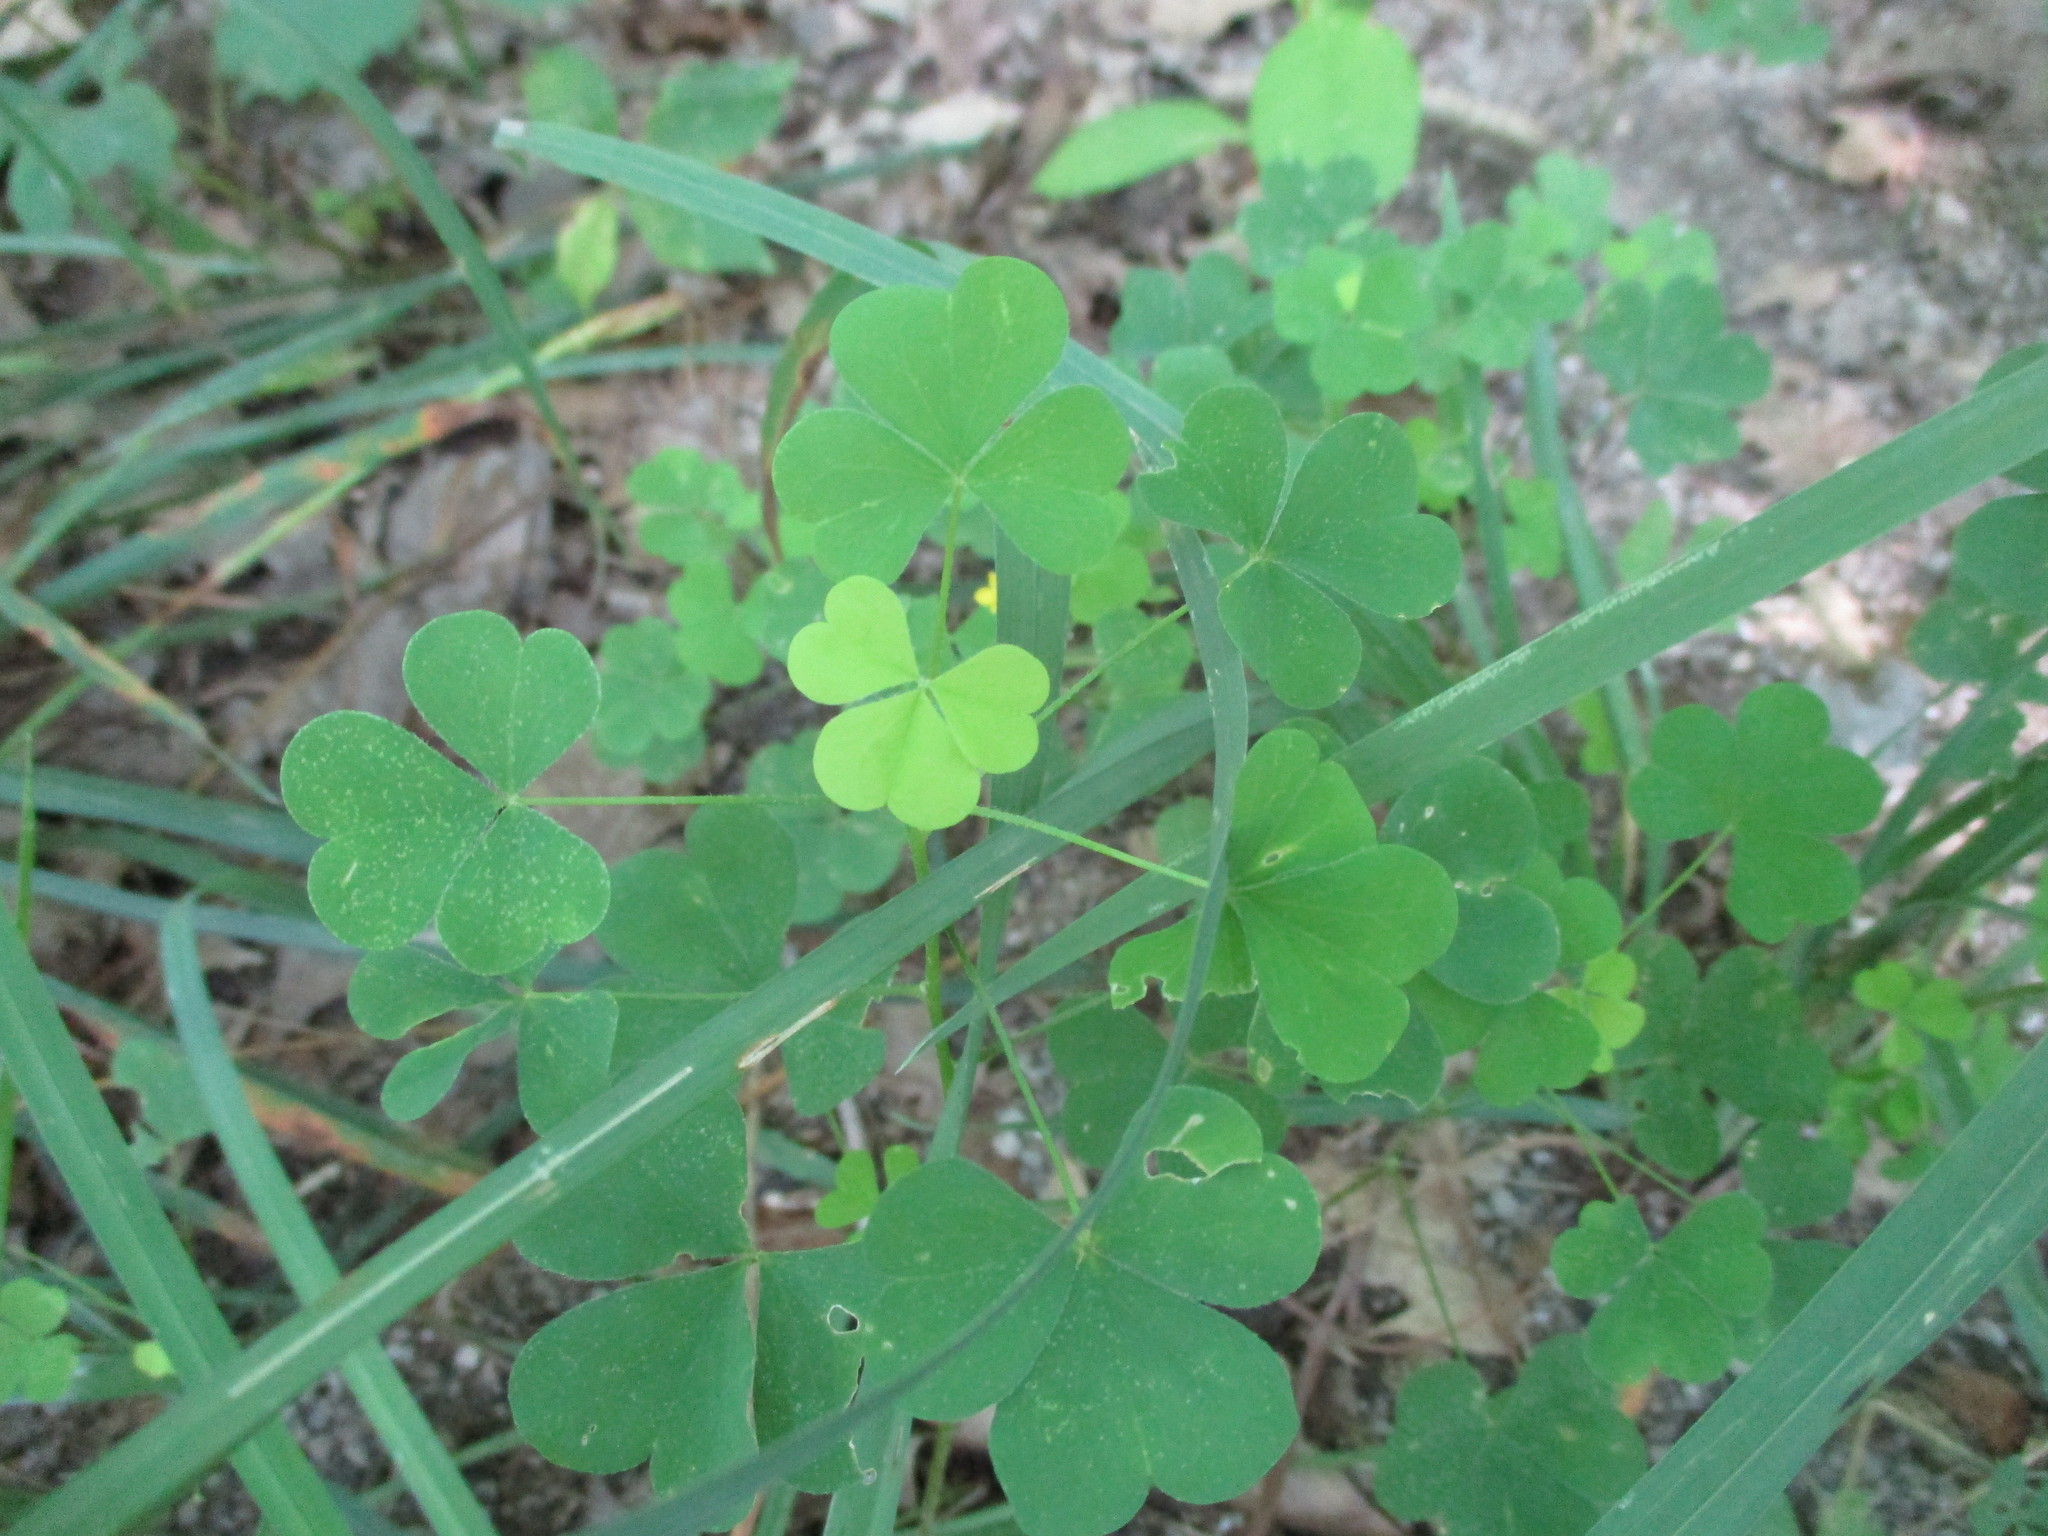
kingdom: Plantae
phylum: Tracheophyta
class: Magnoliopsida
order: Oxalidales
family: Oxalidaceae
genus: Oxalis
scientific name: Oxalis stricta
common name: Upright yellow-sorrel
